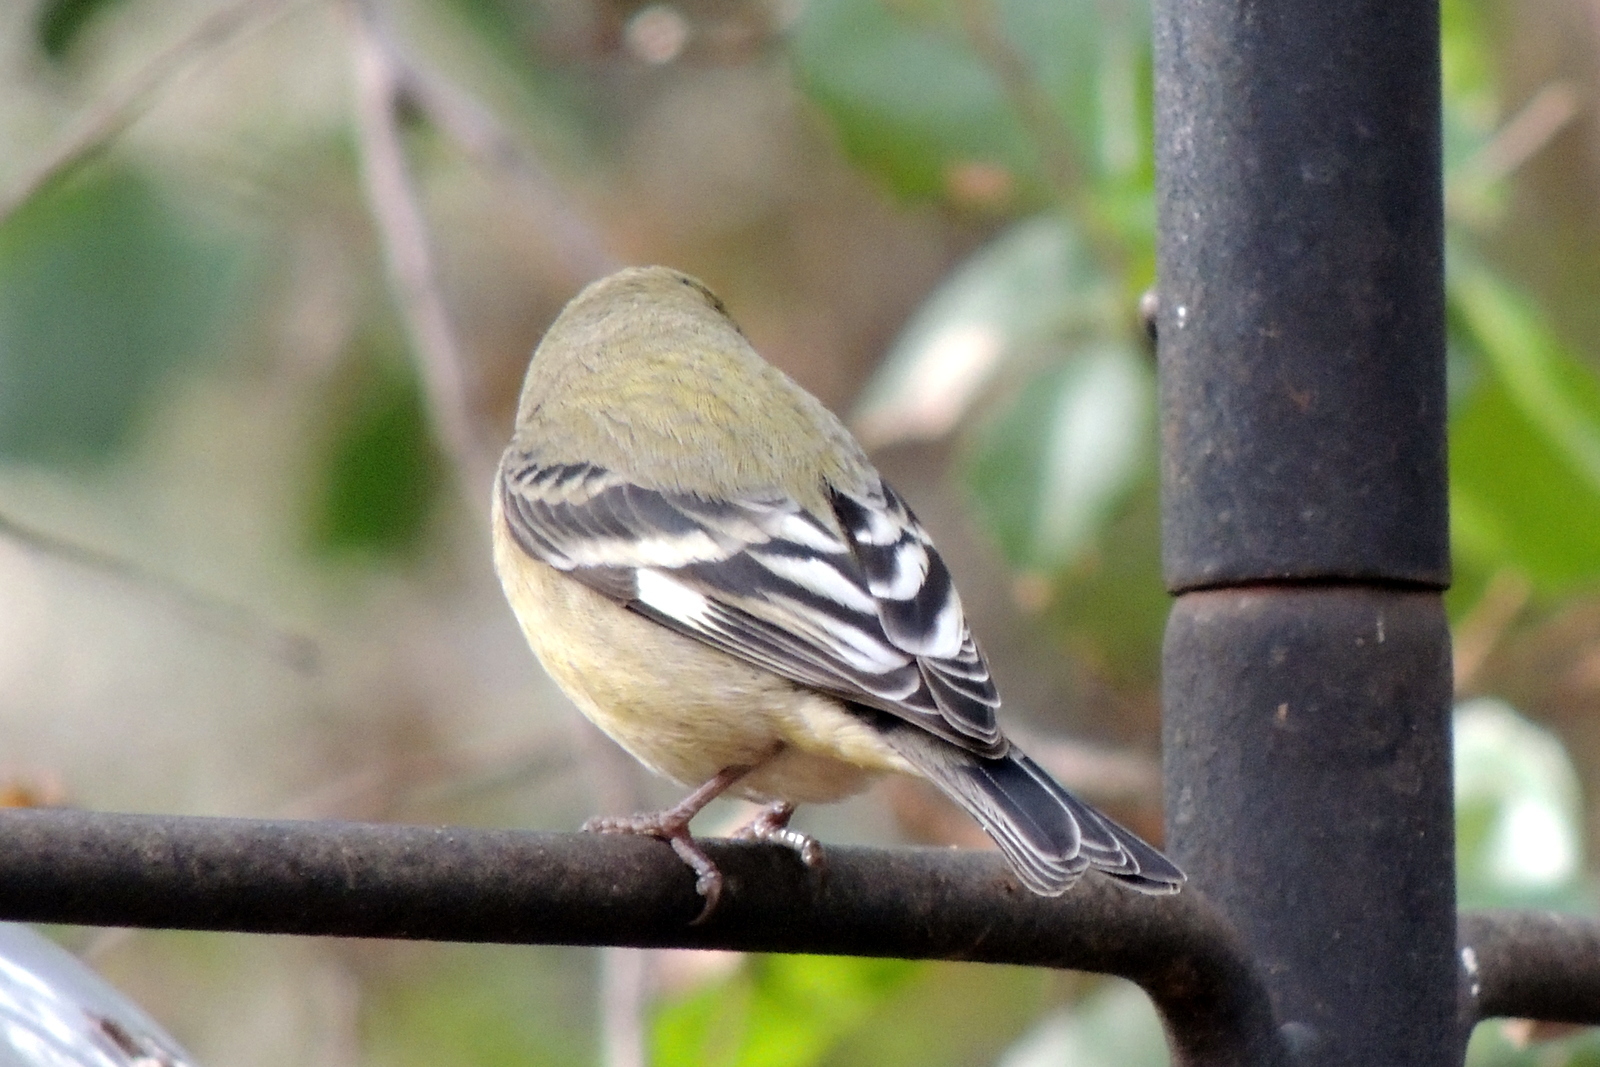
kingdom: Animalia
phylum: Chordata
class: Aves
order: Passeriformes
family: Fringillidae
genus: Spinus
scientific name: Spinus psaltria
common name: Lesser goldfinch
